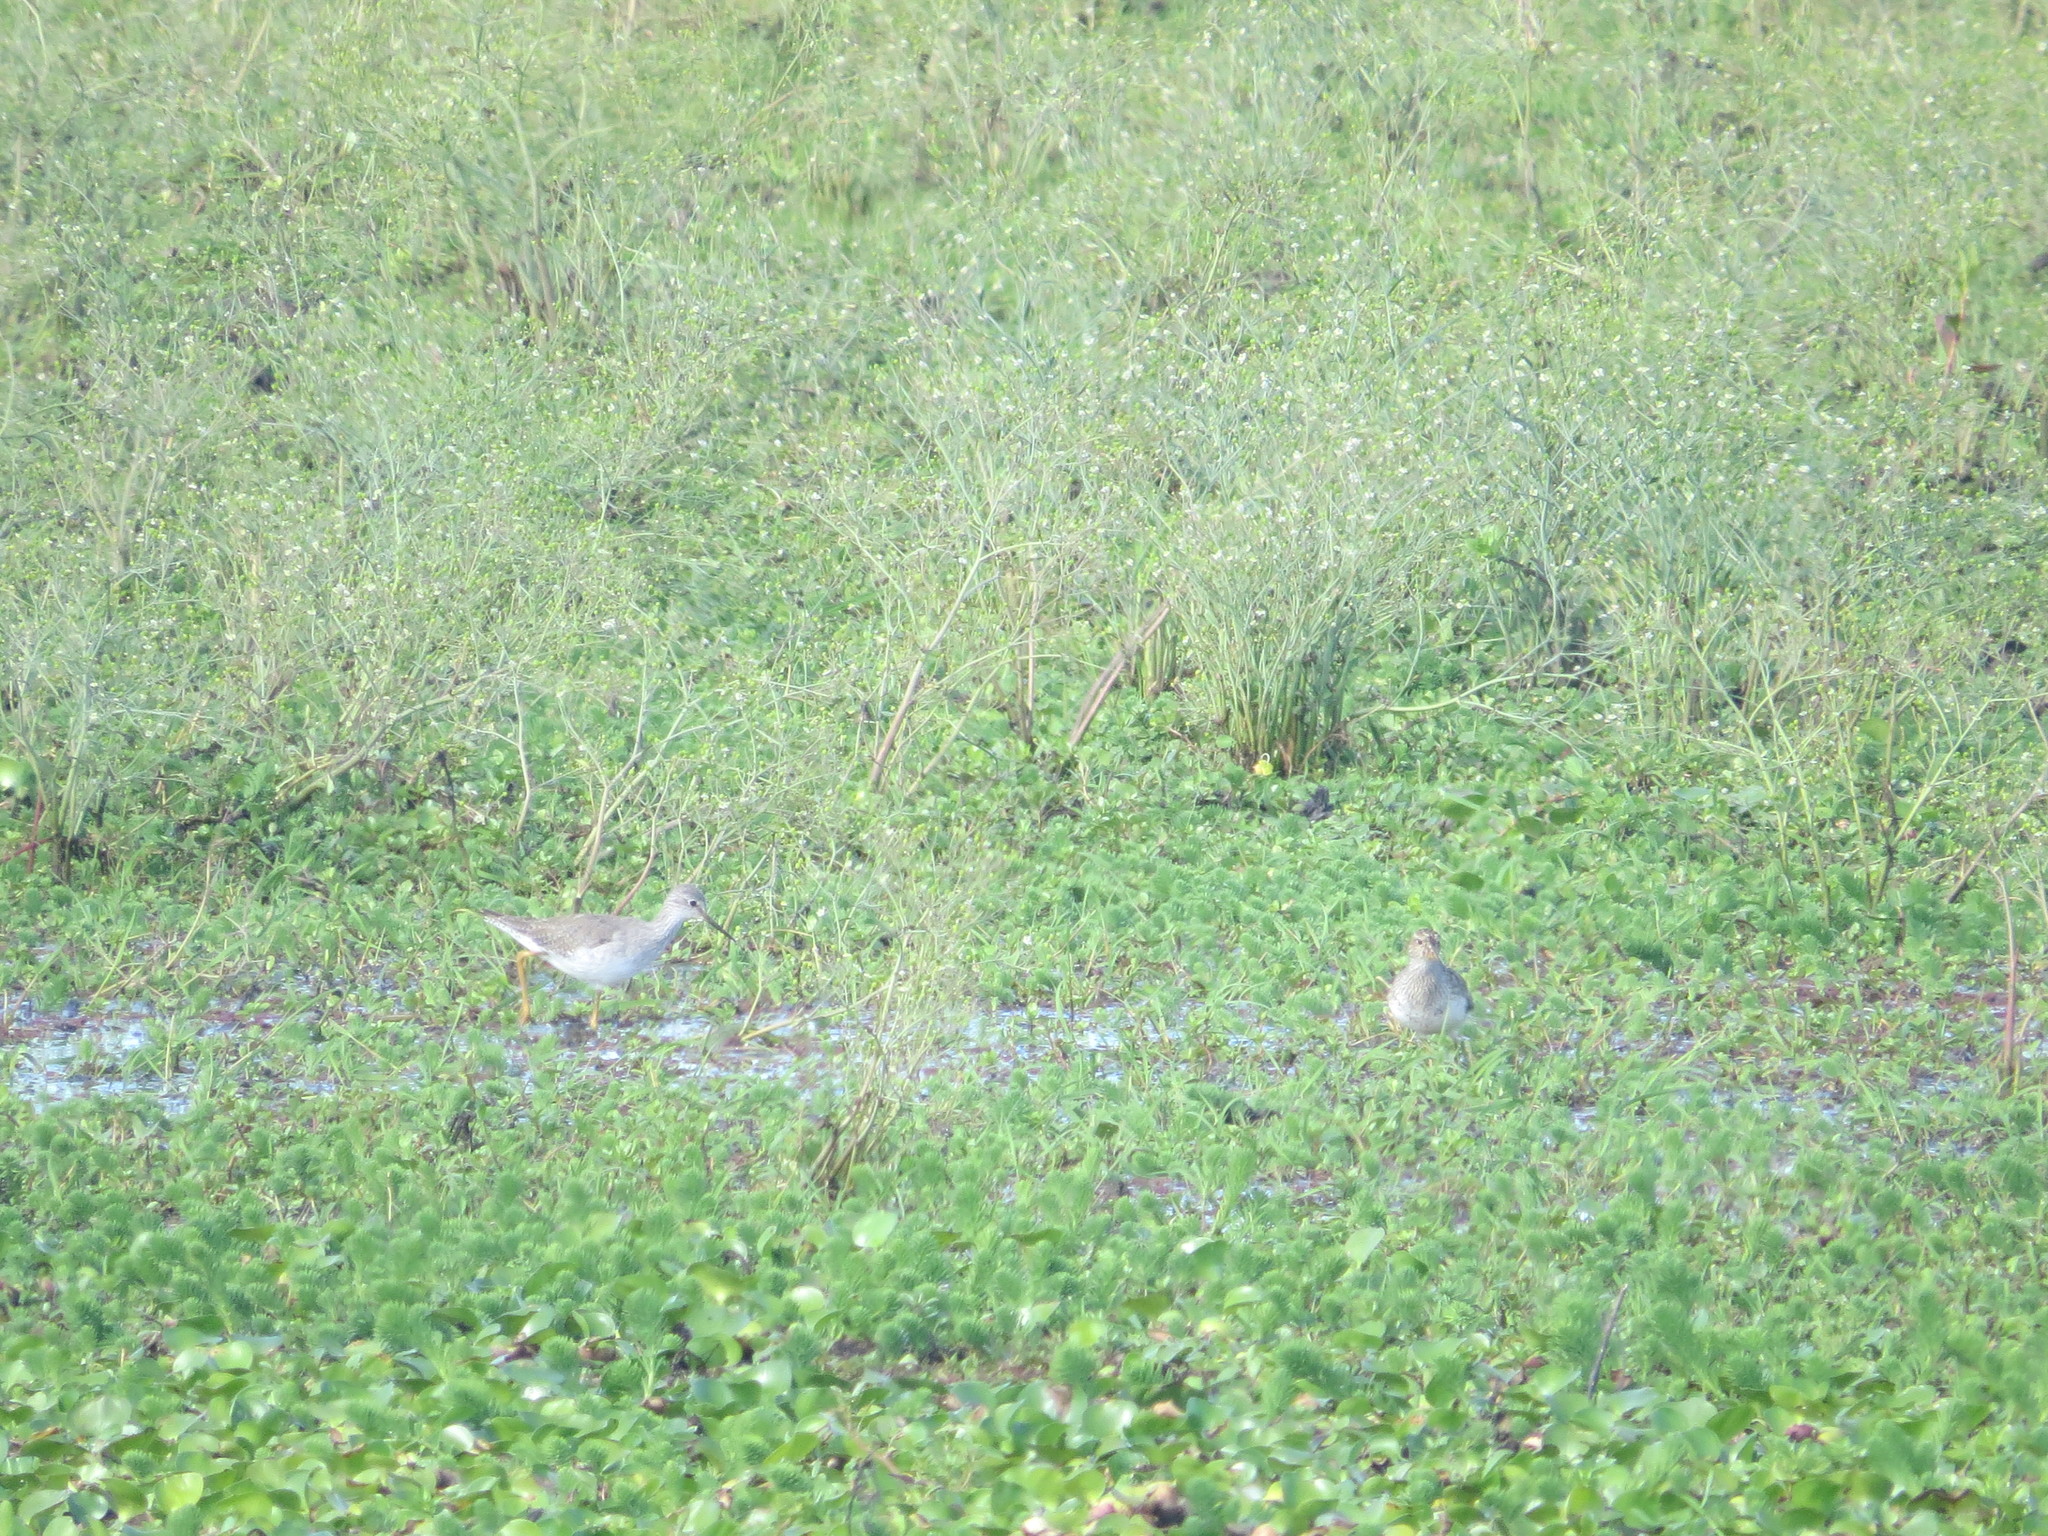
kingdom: Animalia
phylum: Chordata
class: Aves
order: Charadriiformes
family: Scolopacidae
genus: Tringa
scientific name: Tringa flavipes
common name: Lesser yellowlegs
